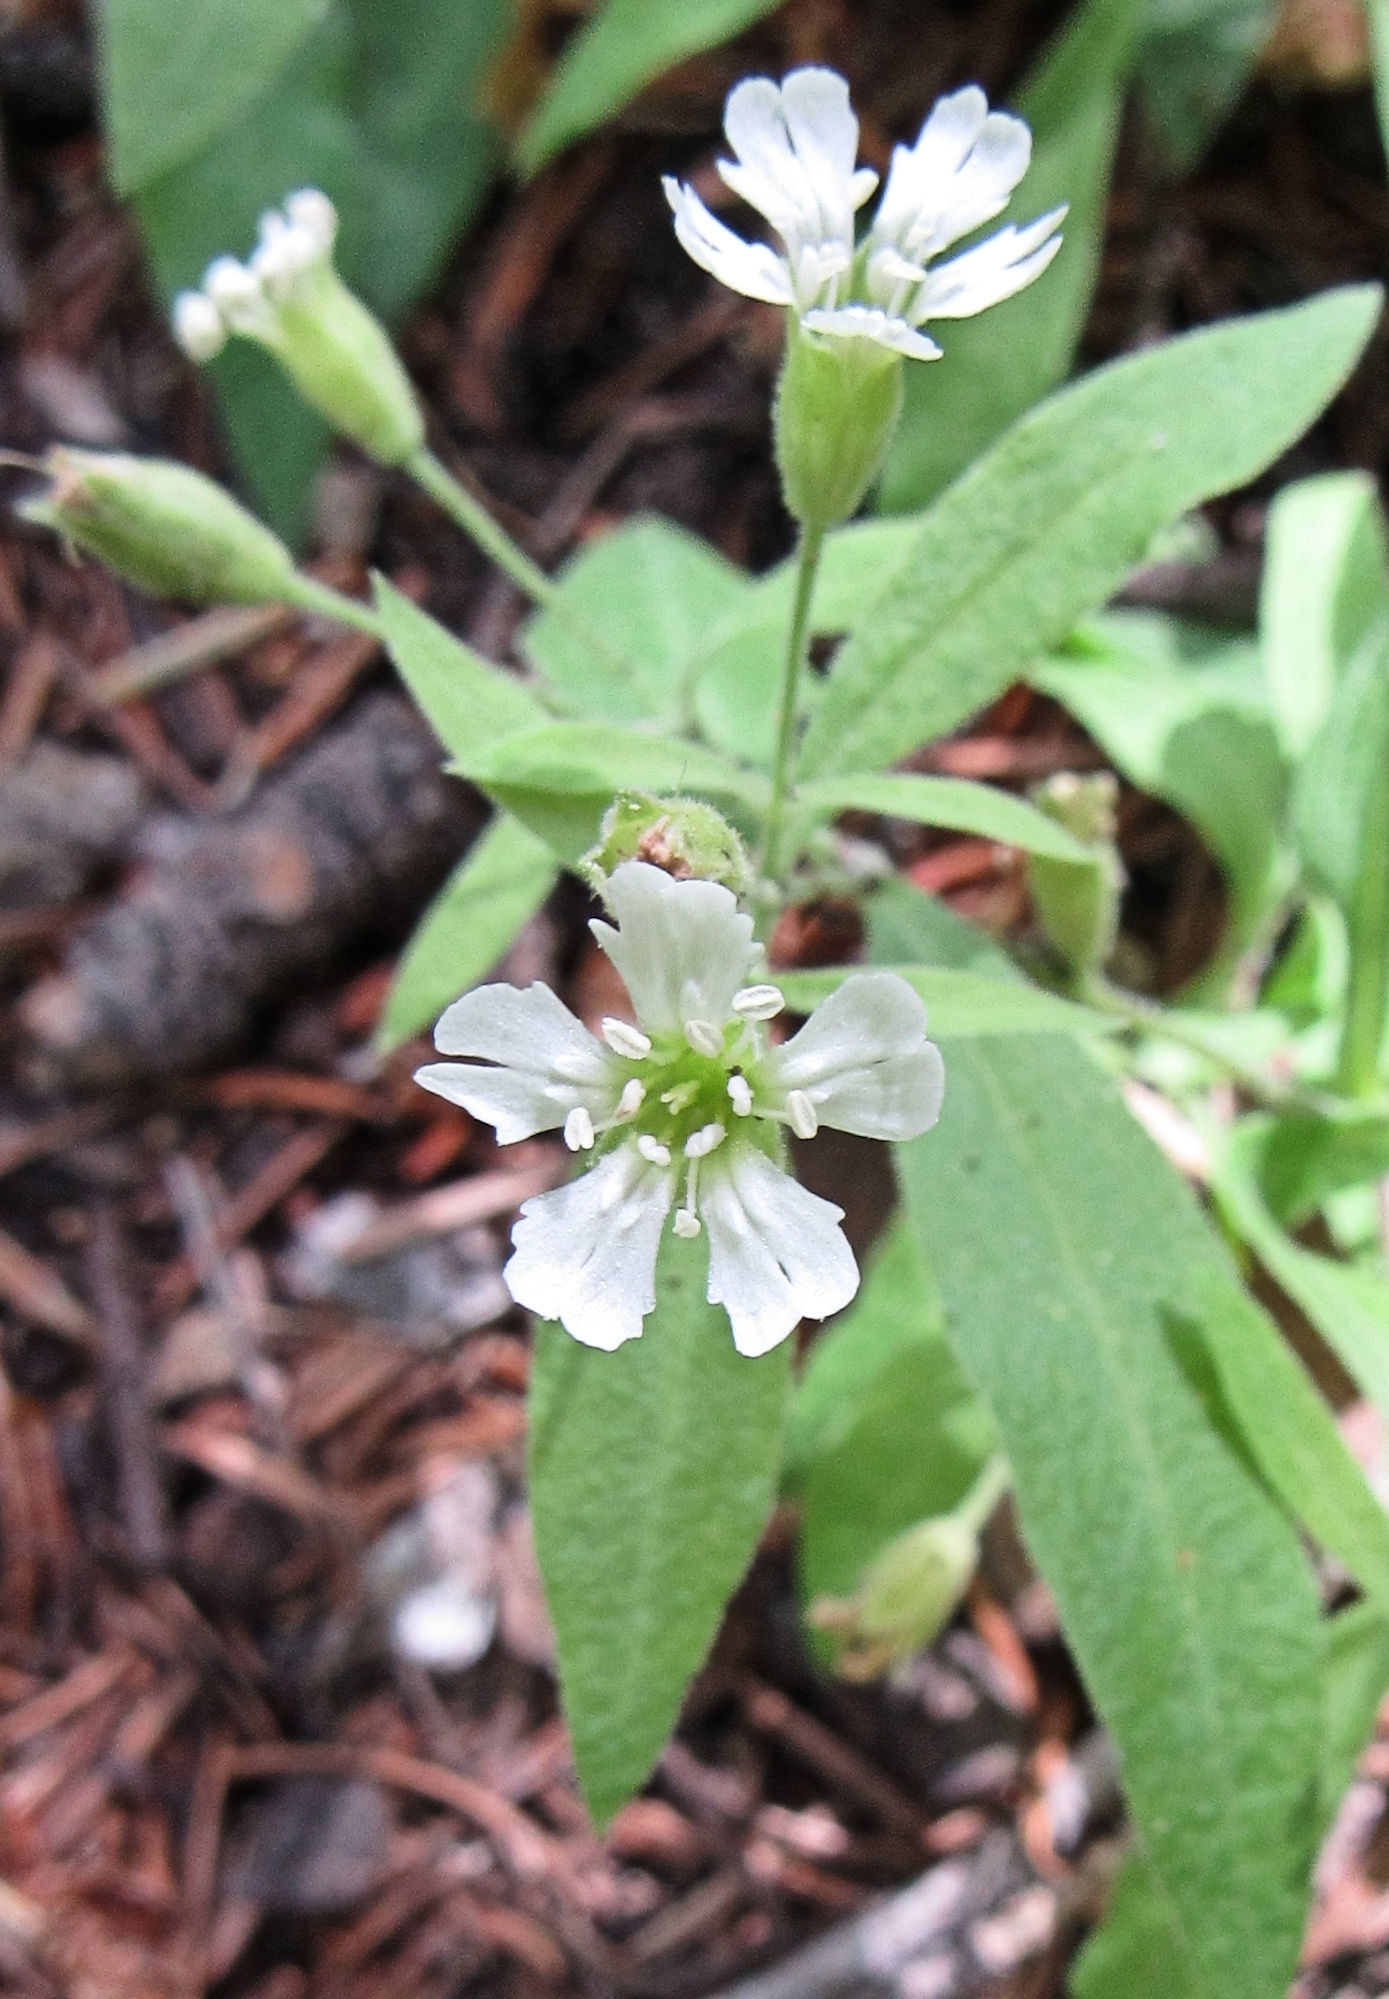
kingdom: Plantae
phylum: Tracheophyta
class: Magnoliopsida
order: Caryophyllales
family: Caryophyllaceae
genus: Silene
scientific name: Silene menziesii
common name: Menzies's catchfly
